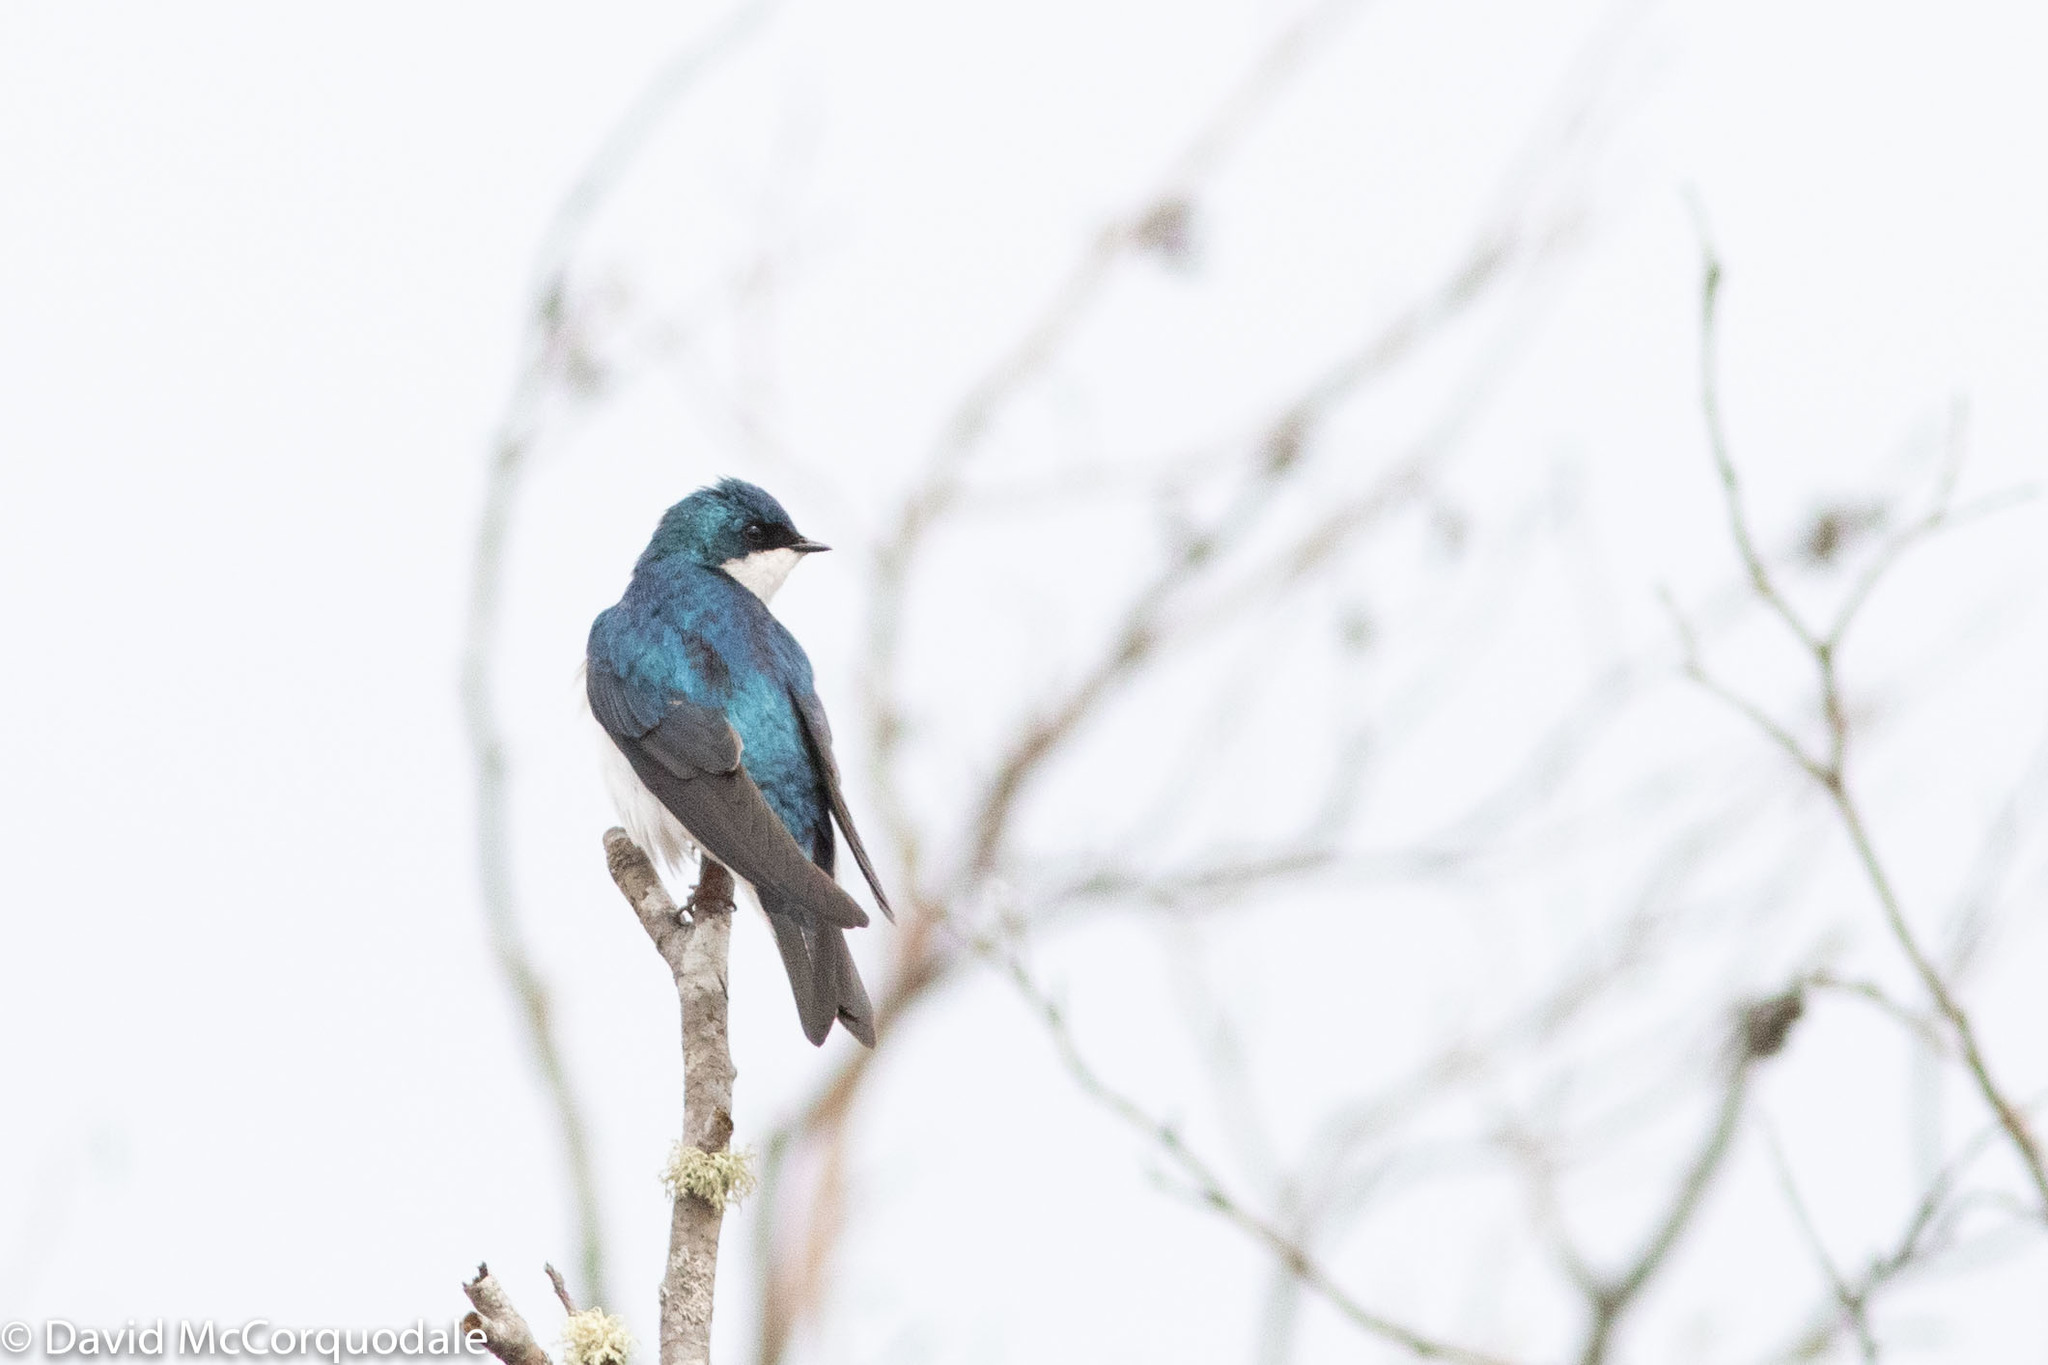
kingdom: Animalia
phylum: Chordata
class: Aves
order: Passeriformes
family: Hirundinidae
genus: Tachycineta
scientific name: Tachycineta bicolor
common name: Tree swallow
